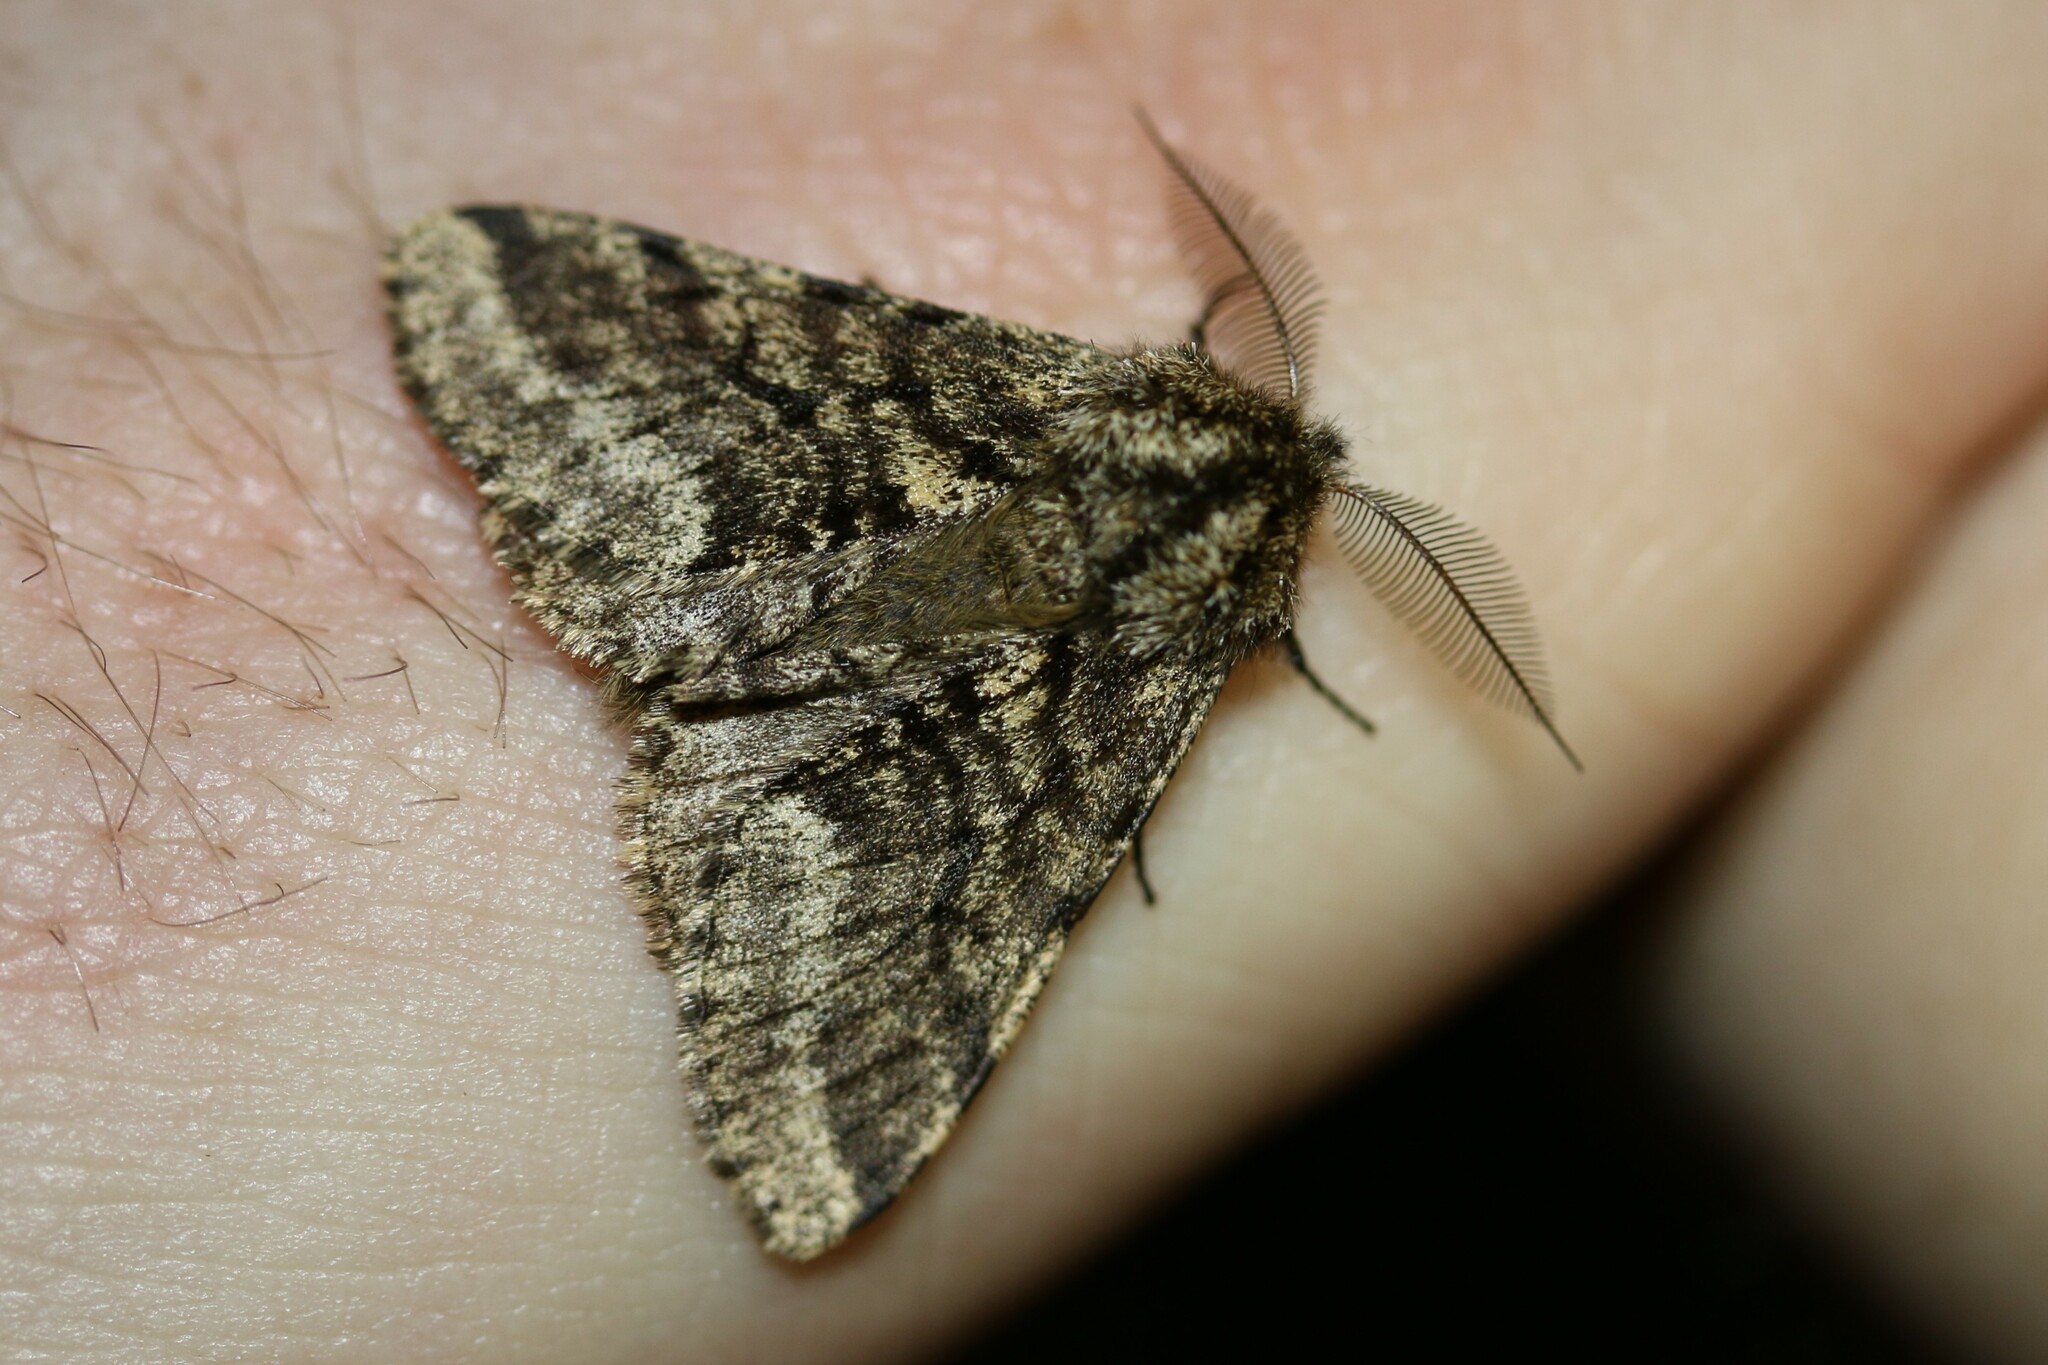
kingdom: Animalia
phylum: Arthropoda
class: Insecta
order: Lepidoptera
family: Geometridae
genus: Lycia
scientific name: Lycia hirtaria
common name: Brindled beauty
